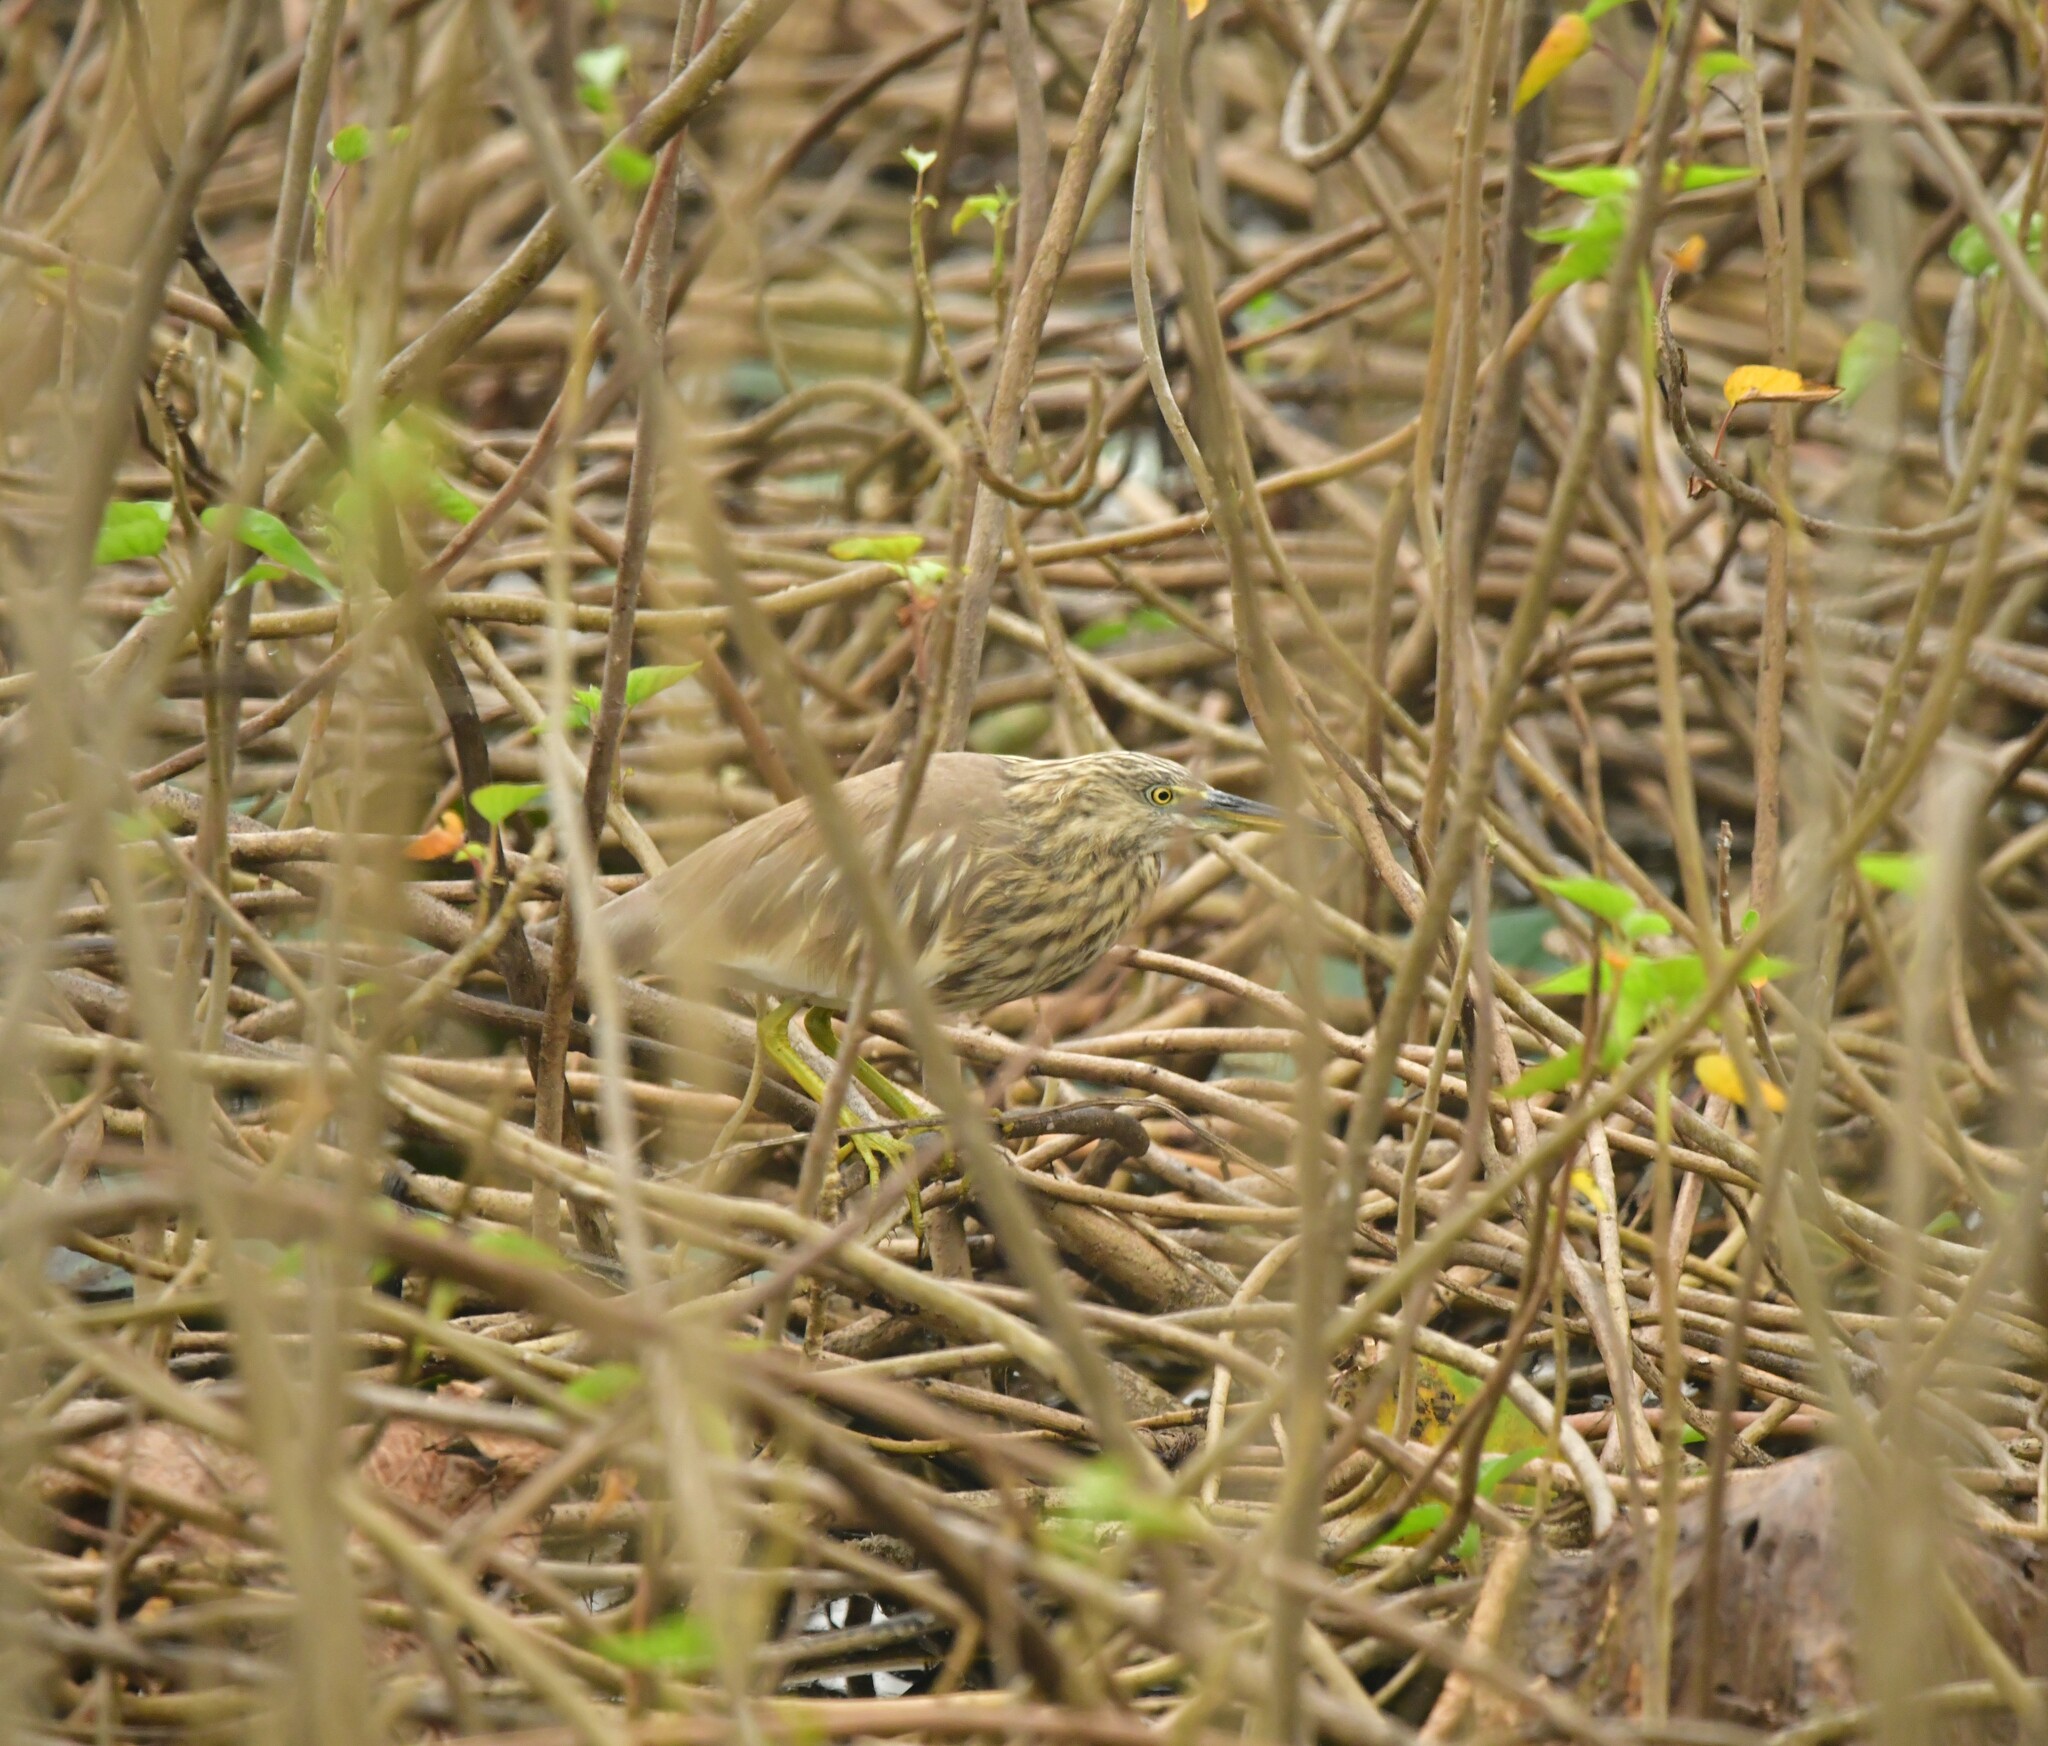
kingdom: Animalia
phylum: Chordata
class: Aves
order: Pelecaniformes
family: Ardeidae
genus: Ardeola
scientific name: Ardeola grayii
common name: Indian pond heron
